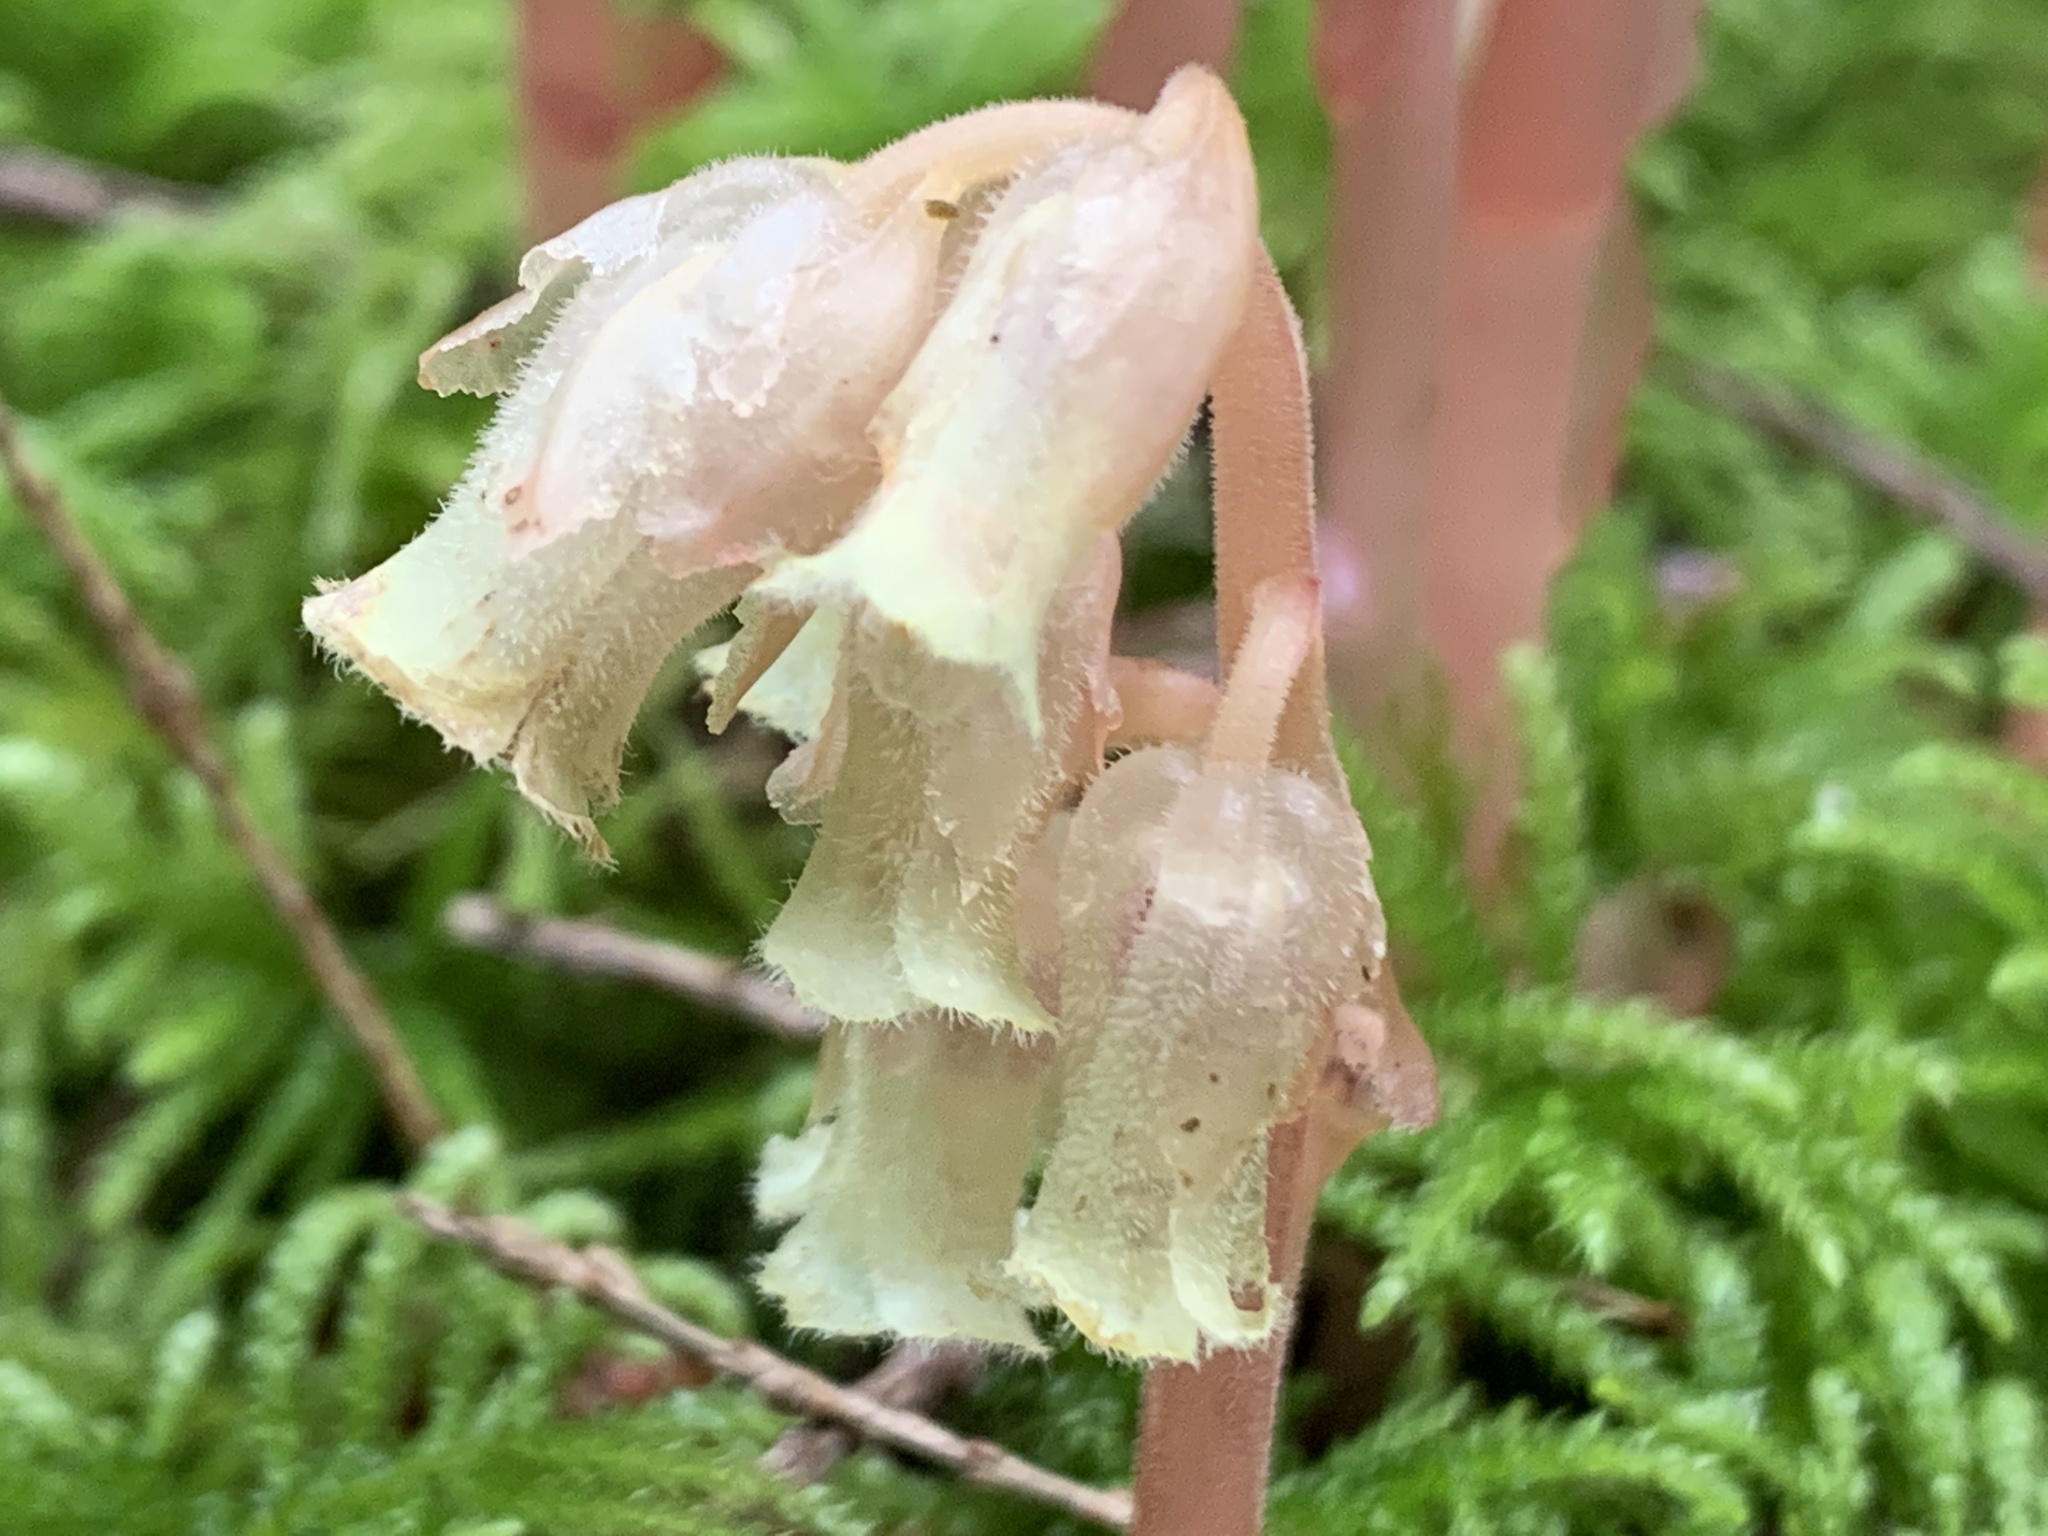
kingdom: Plantae
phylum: Tracheophyta
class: Magnoliopsida
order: Ericales
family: Ericaceae
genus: Hypopitys
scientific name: Hypopitys monotropa
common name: Yellow bird's-nest
